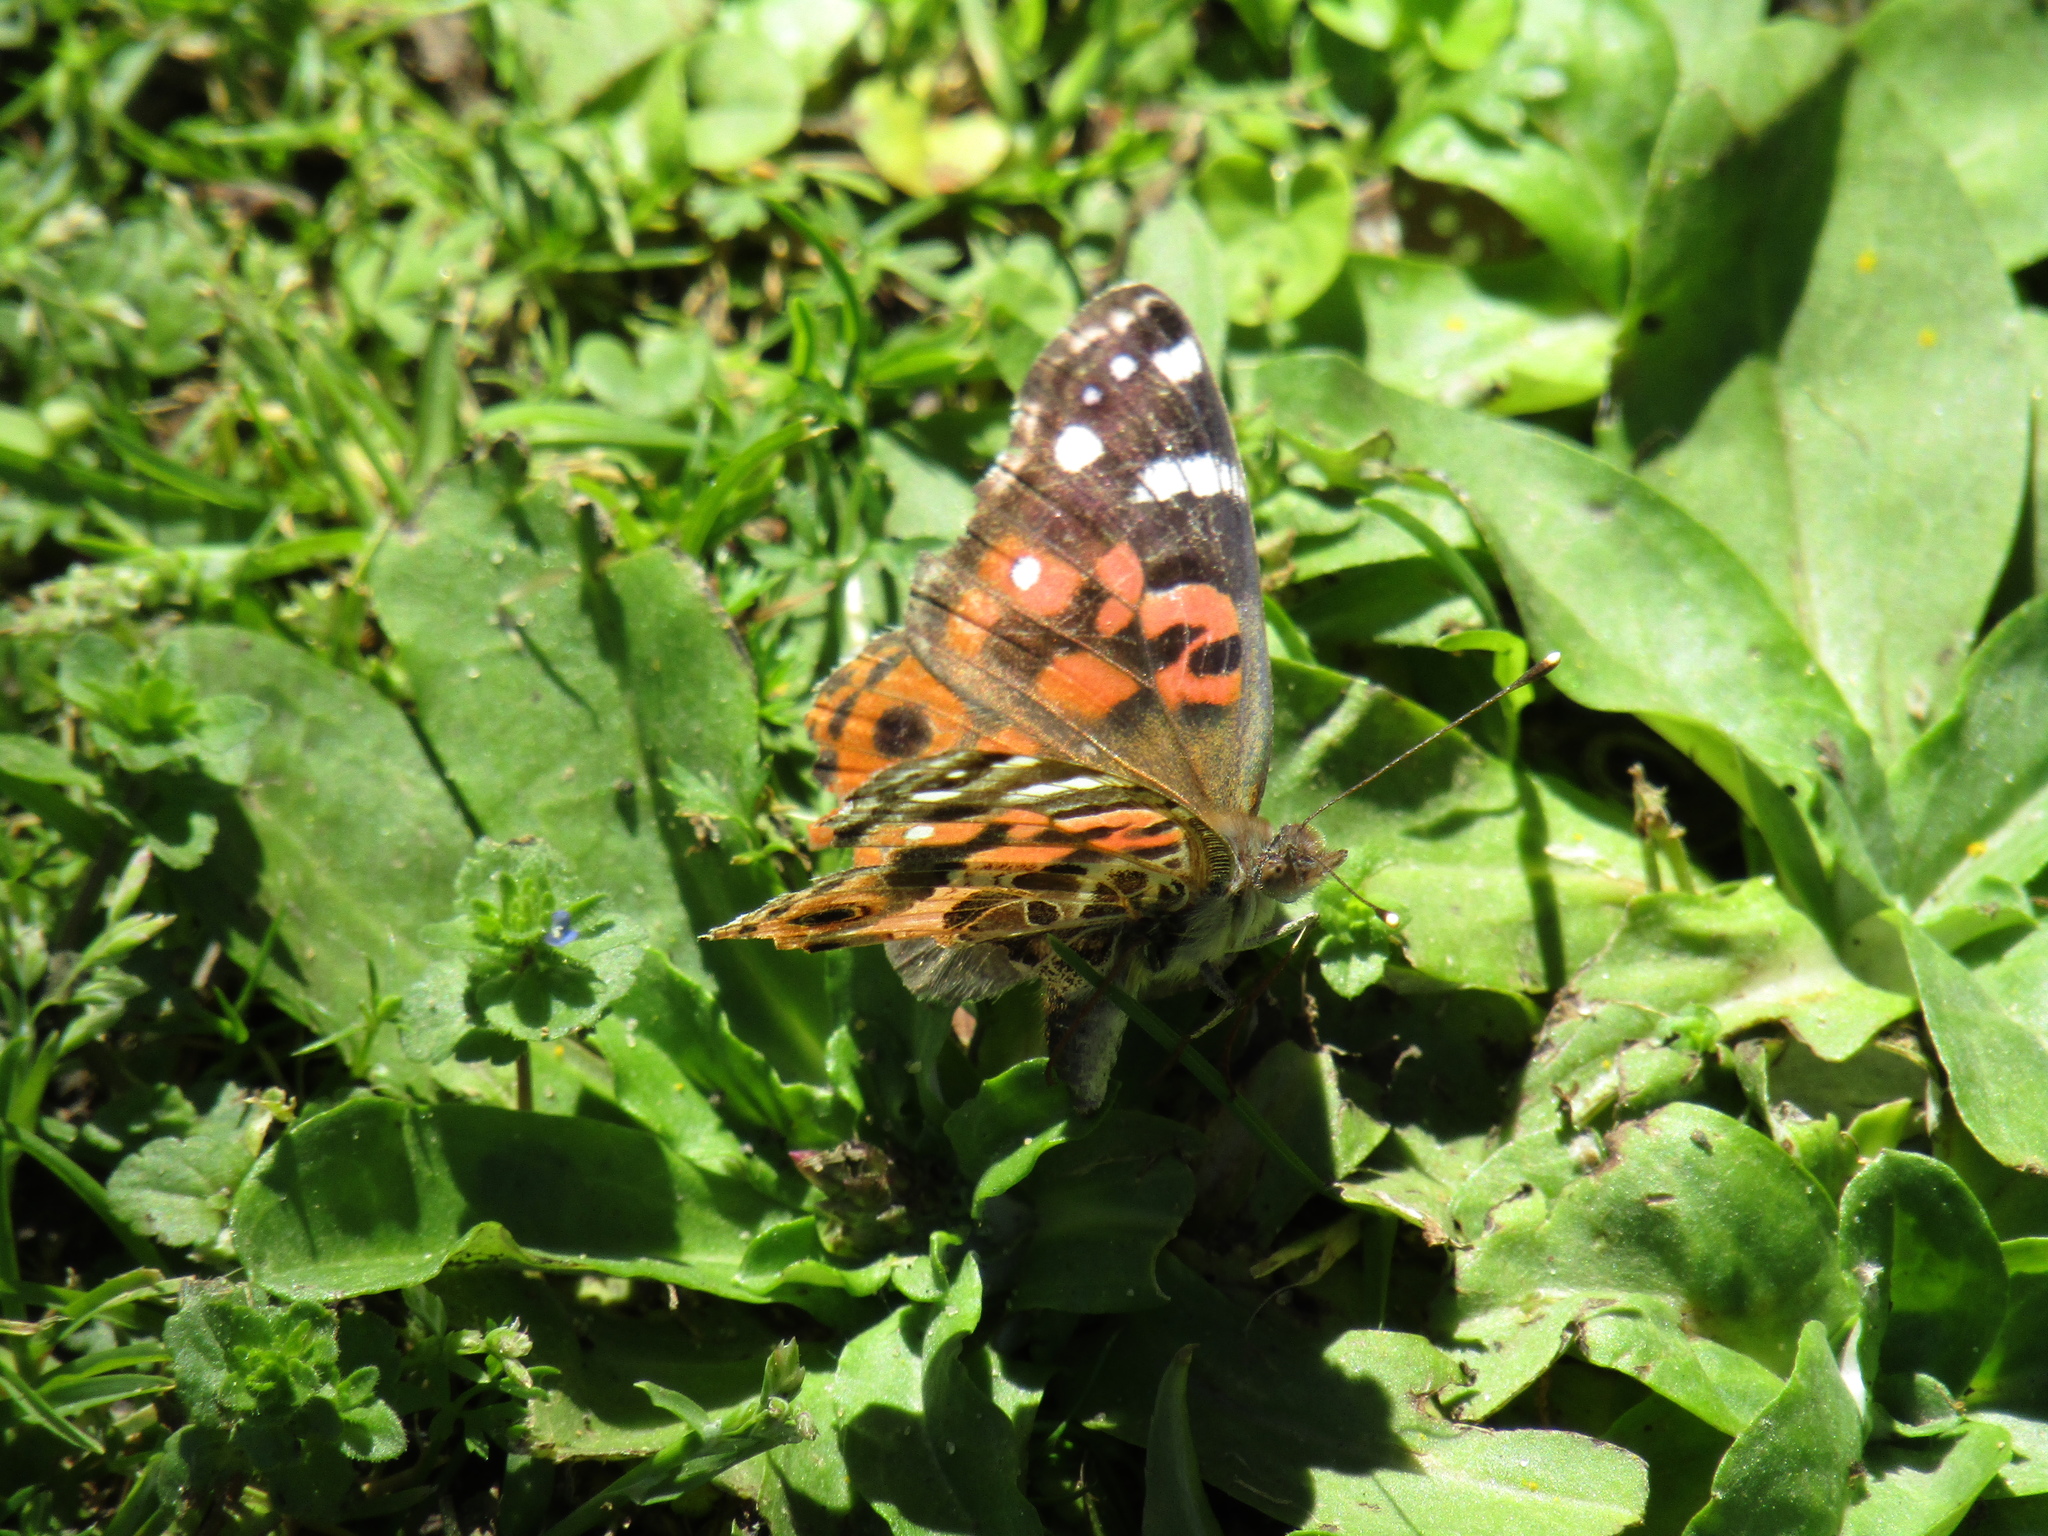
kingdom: Animalia
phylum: Arthropoda
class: Insecta
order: Lepidoptera
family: Nymphalidae
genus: Vanessa
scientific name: Vanessa braziliensis
